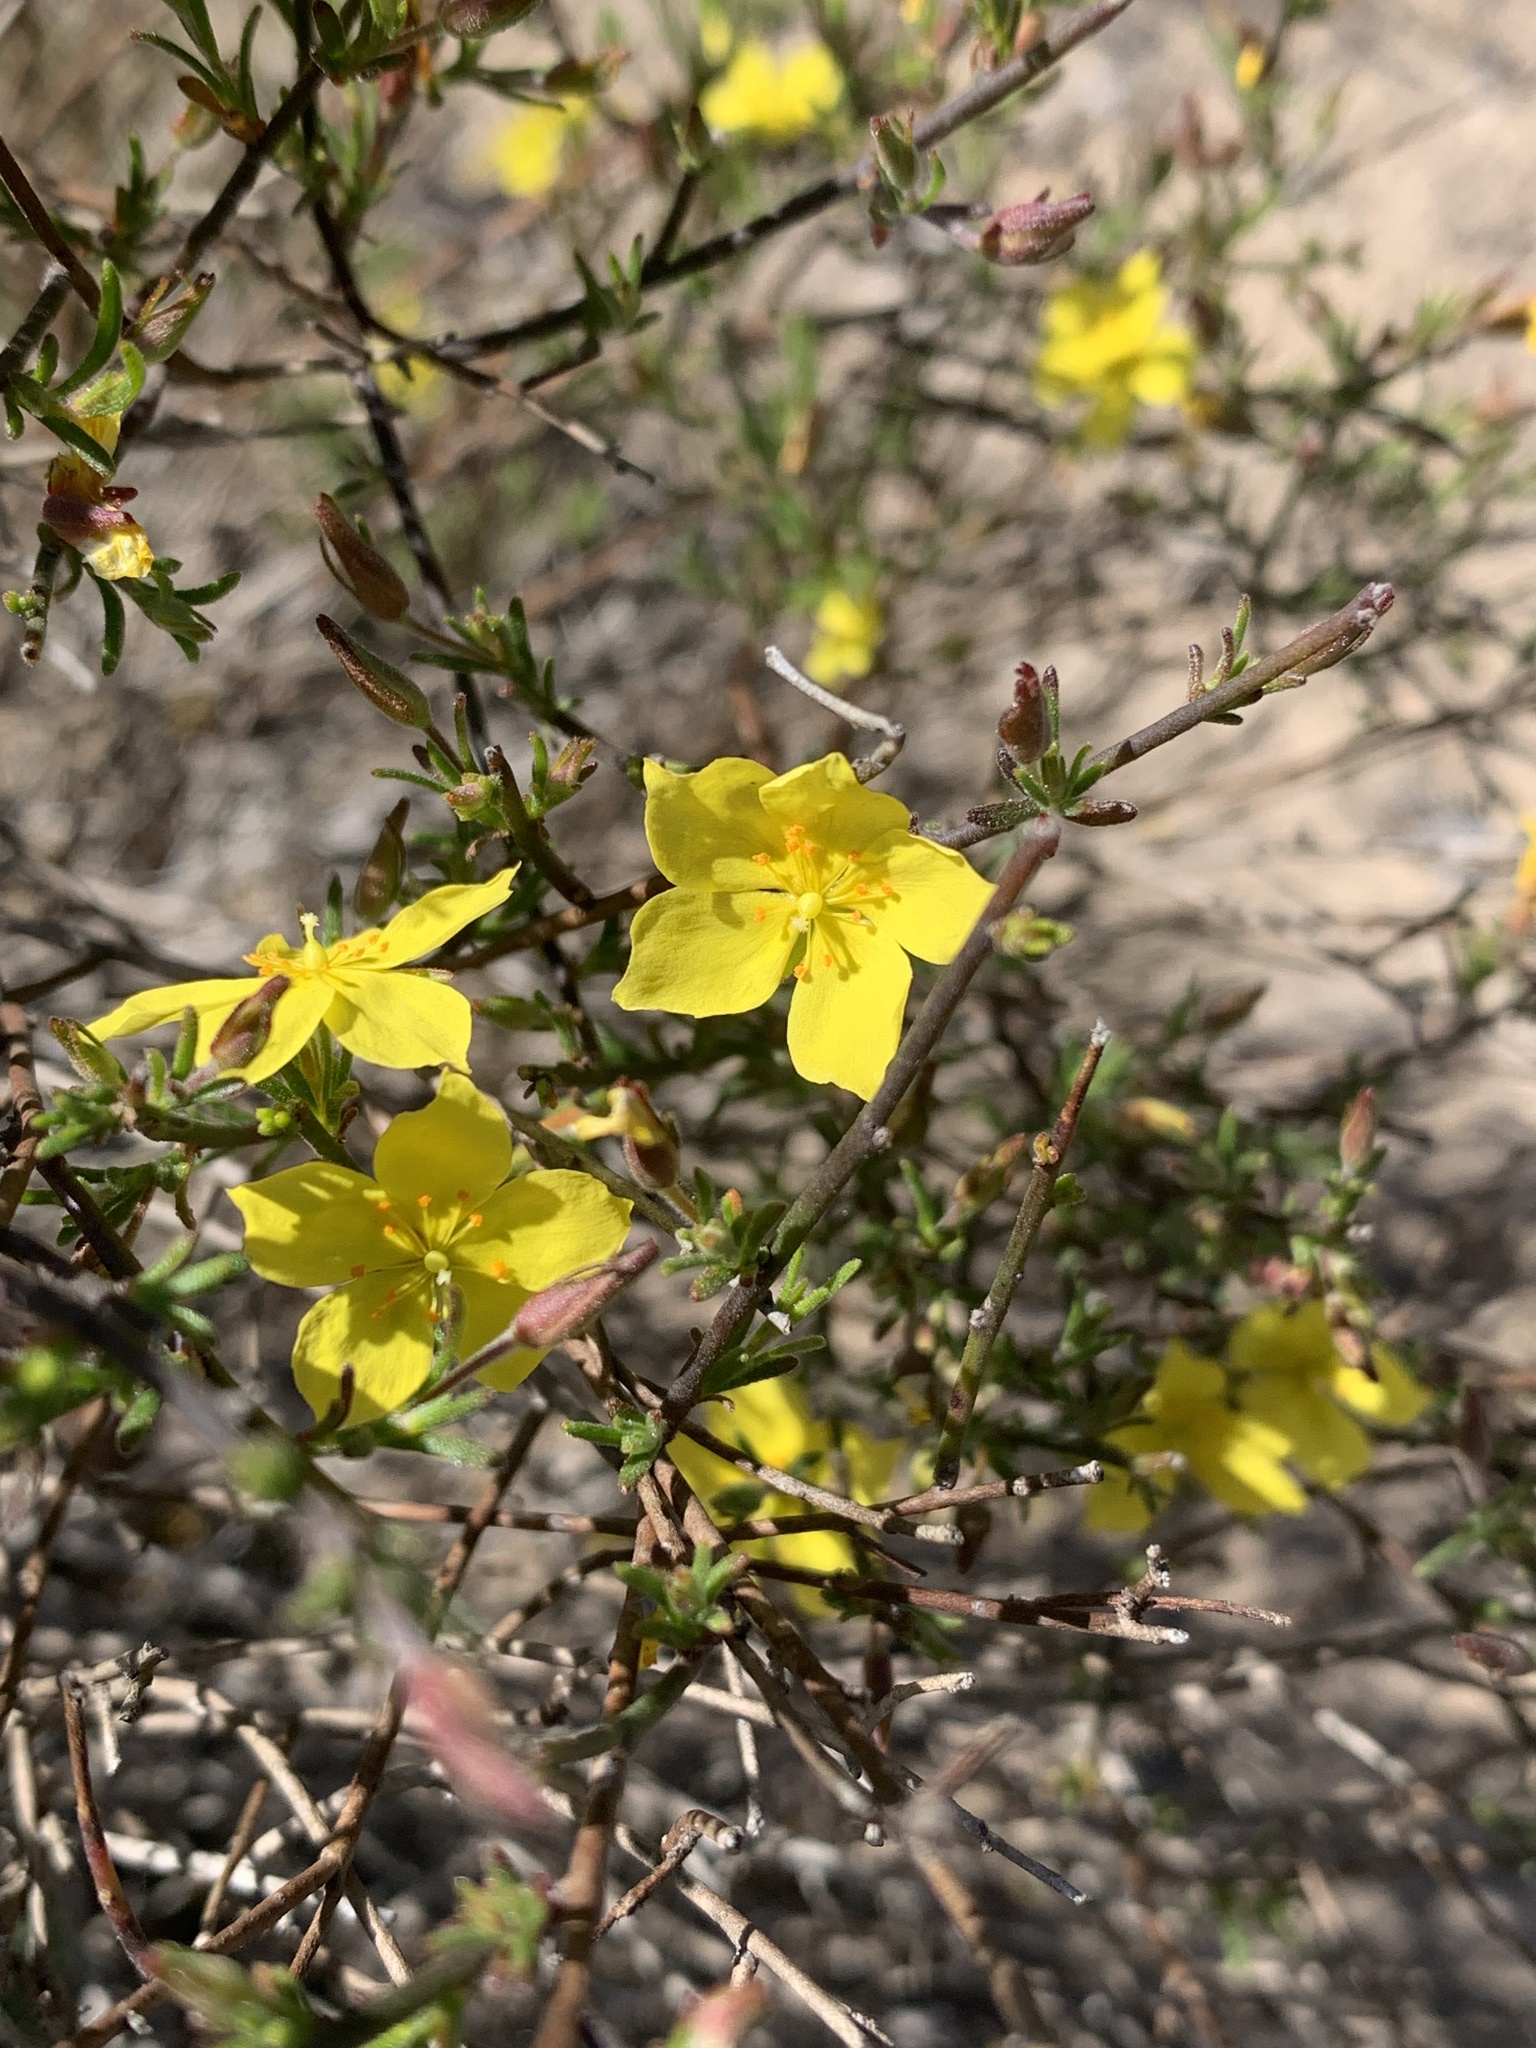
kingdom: Plantae
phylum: Tracheophyta
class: Magnoliopsida
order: Malvales
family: Cistaceae
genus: Crocanthemum
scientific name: Crocanthemum scoparium
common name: Broom-rose
